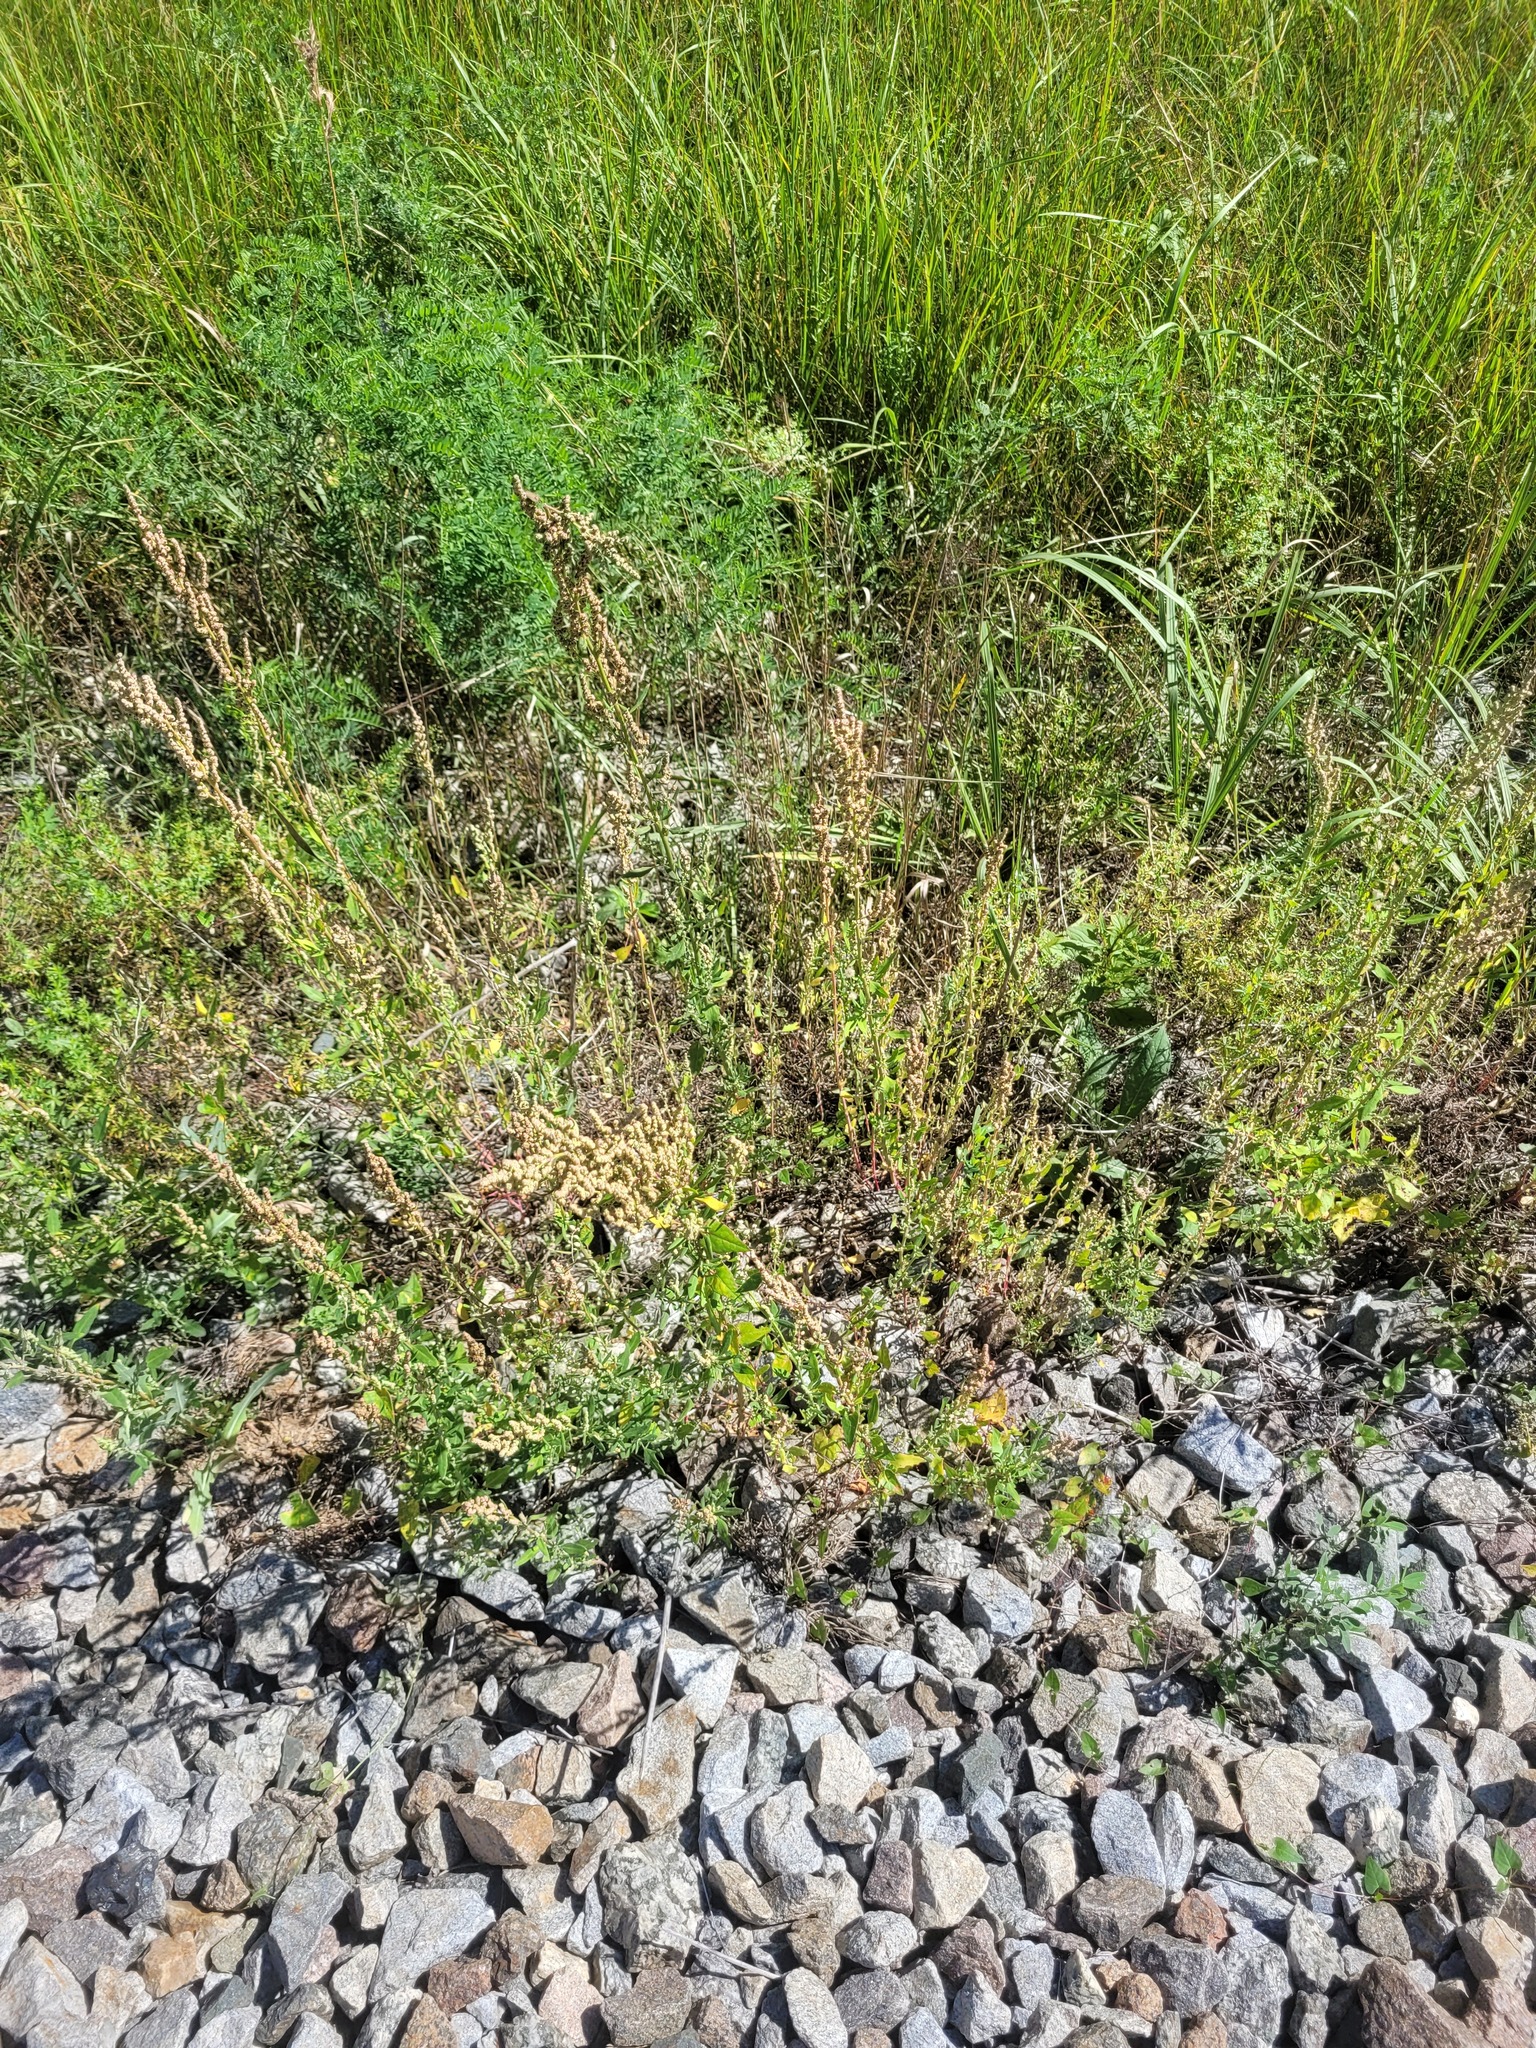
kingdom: Plantae
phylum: Tracheophyta
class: Magnoliopsida
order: Caryophyllales
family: Amaranthaceae
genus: Chenopodium
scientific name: Chenopodium album
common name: Fat-hen
